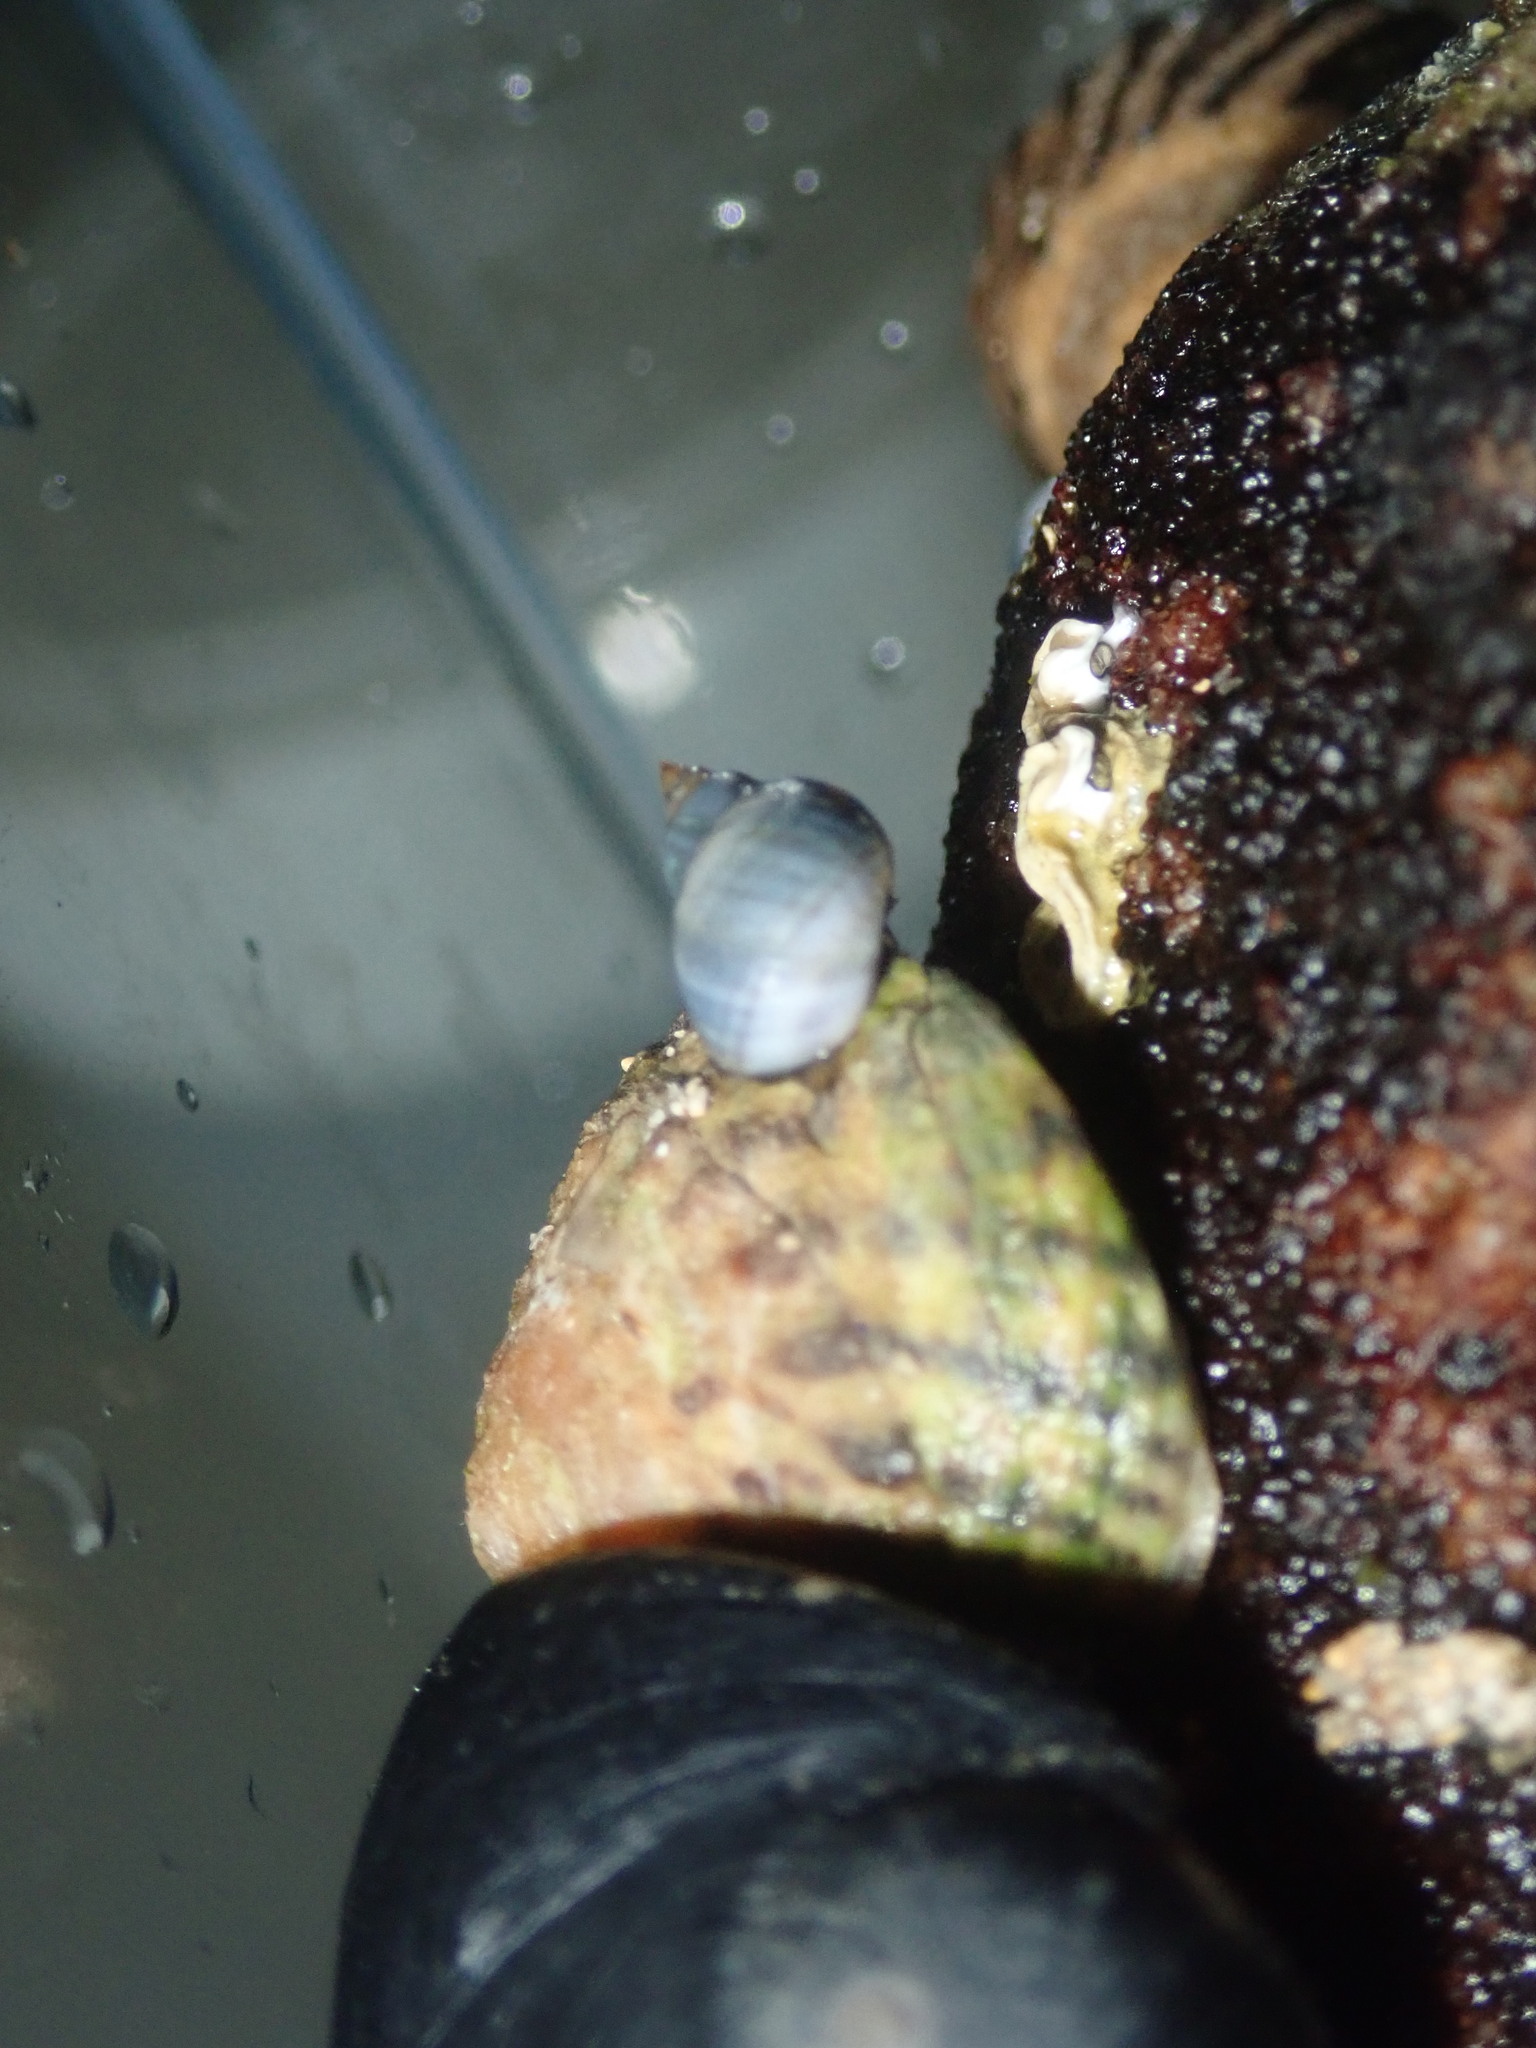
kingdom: Animalia
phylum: Mollusca
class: Gastropoda
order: Littorinimorpha
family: Littorinidae
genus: Austrolittorina
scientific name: Austrolittorina unifasciata
